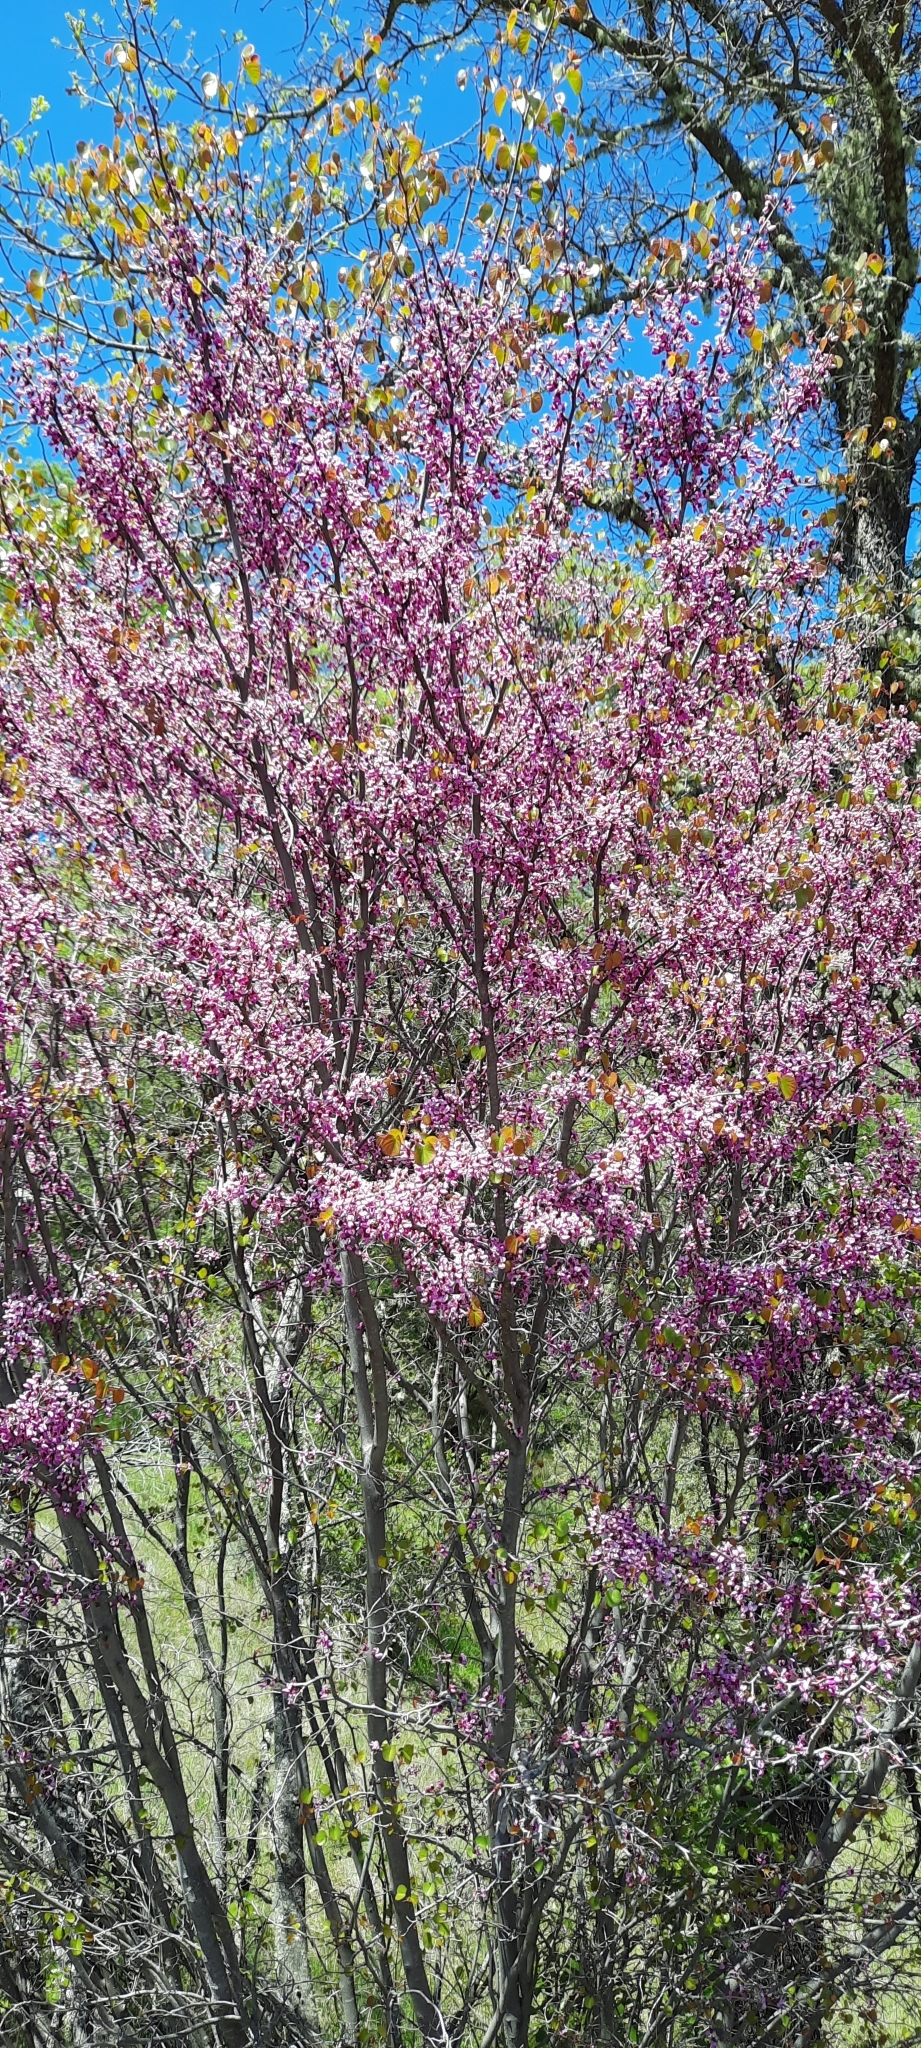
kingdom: Plantae
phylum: Tracheophyta
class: Magnoliopsida
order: Fabales
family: Fabaceae
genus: Cercis
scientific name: Cercis occidentalis
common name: California redbud
